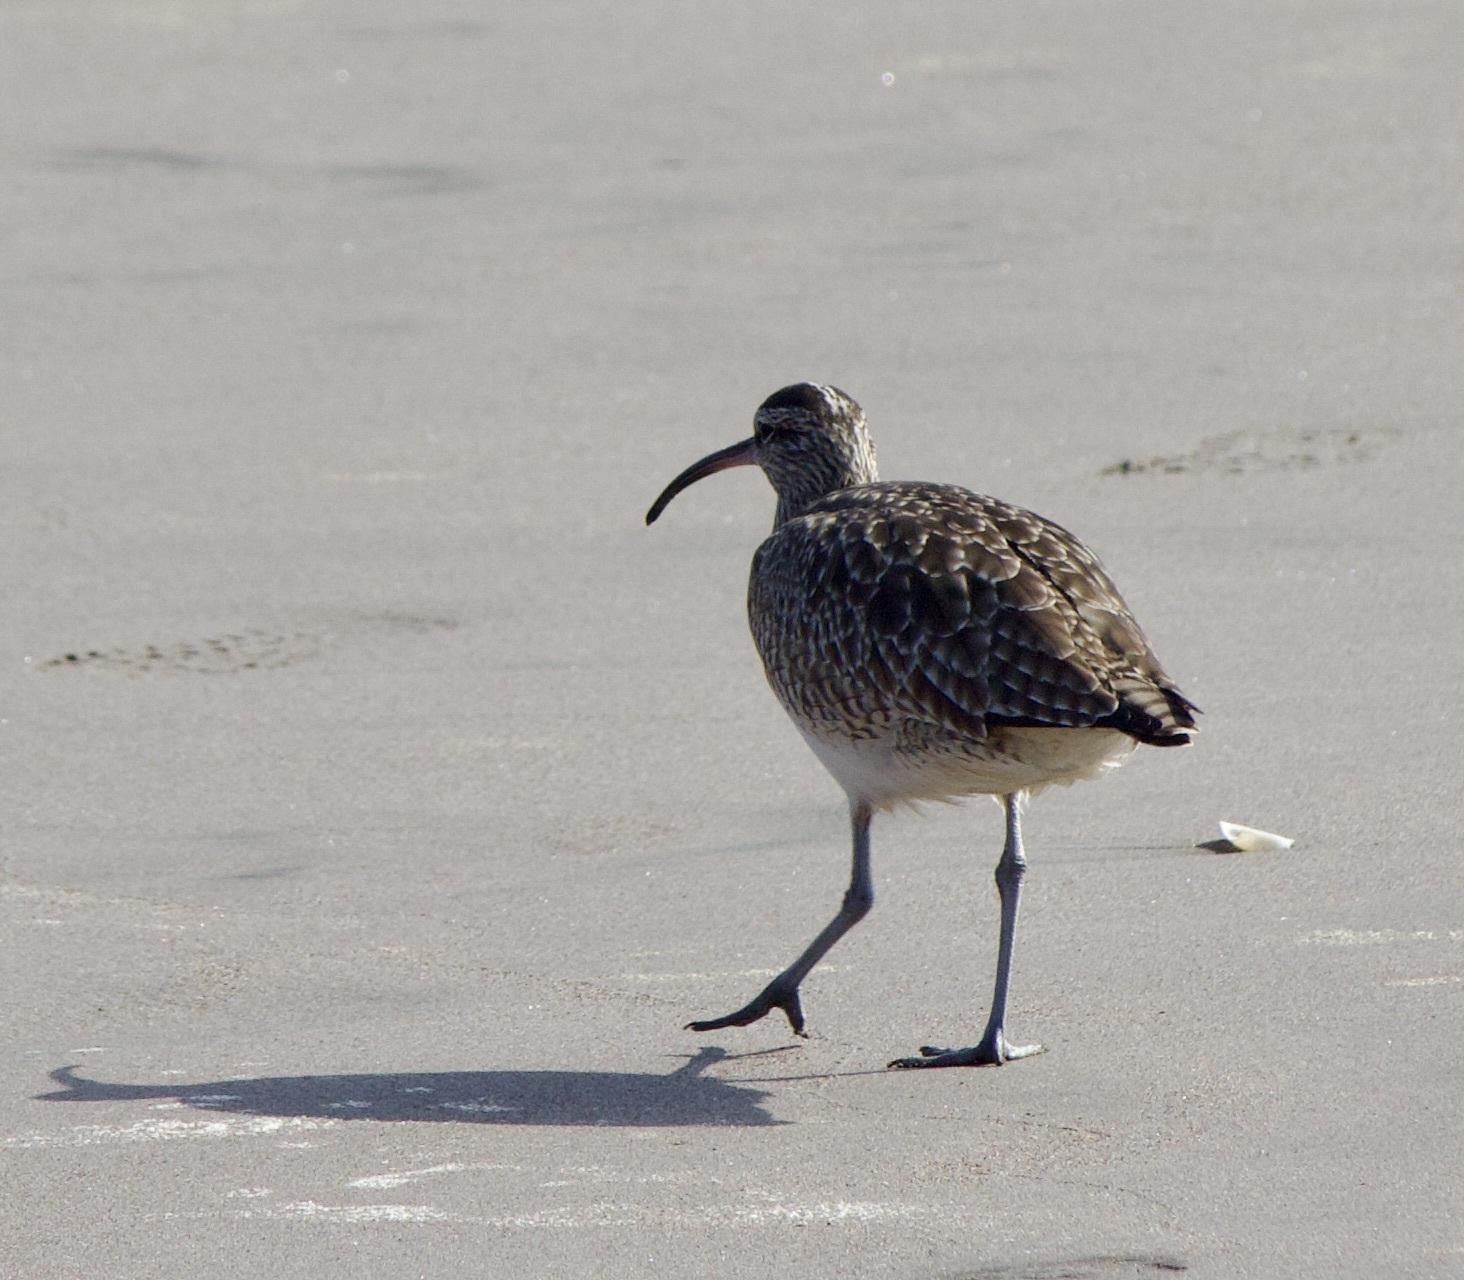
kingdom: Animalia
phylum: Chordata
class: Aves
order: Charadriiformes
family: Scolopacidae
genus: Numenius
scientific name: Numenius phaeopus
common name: Whimbrel
